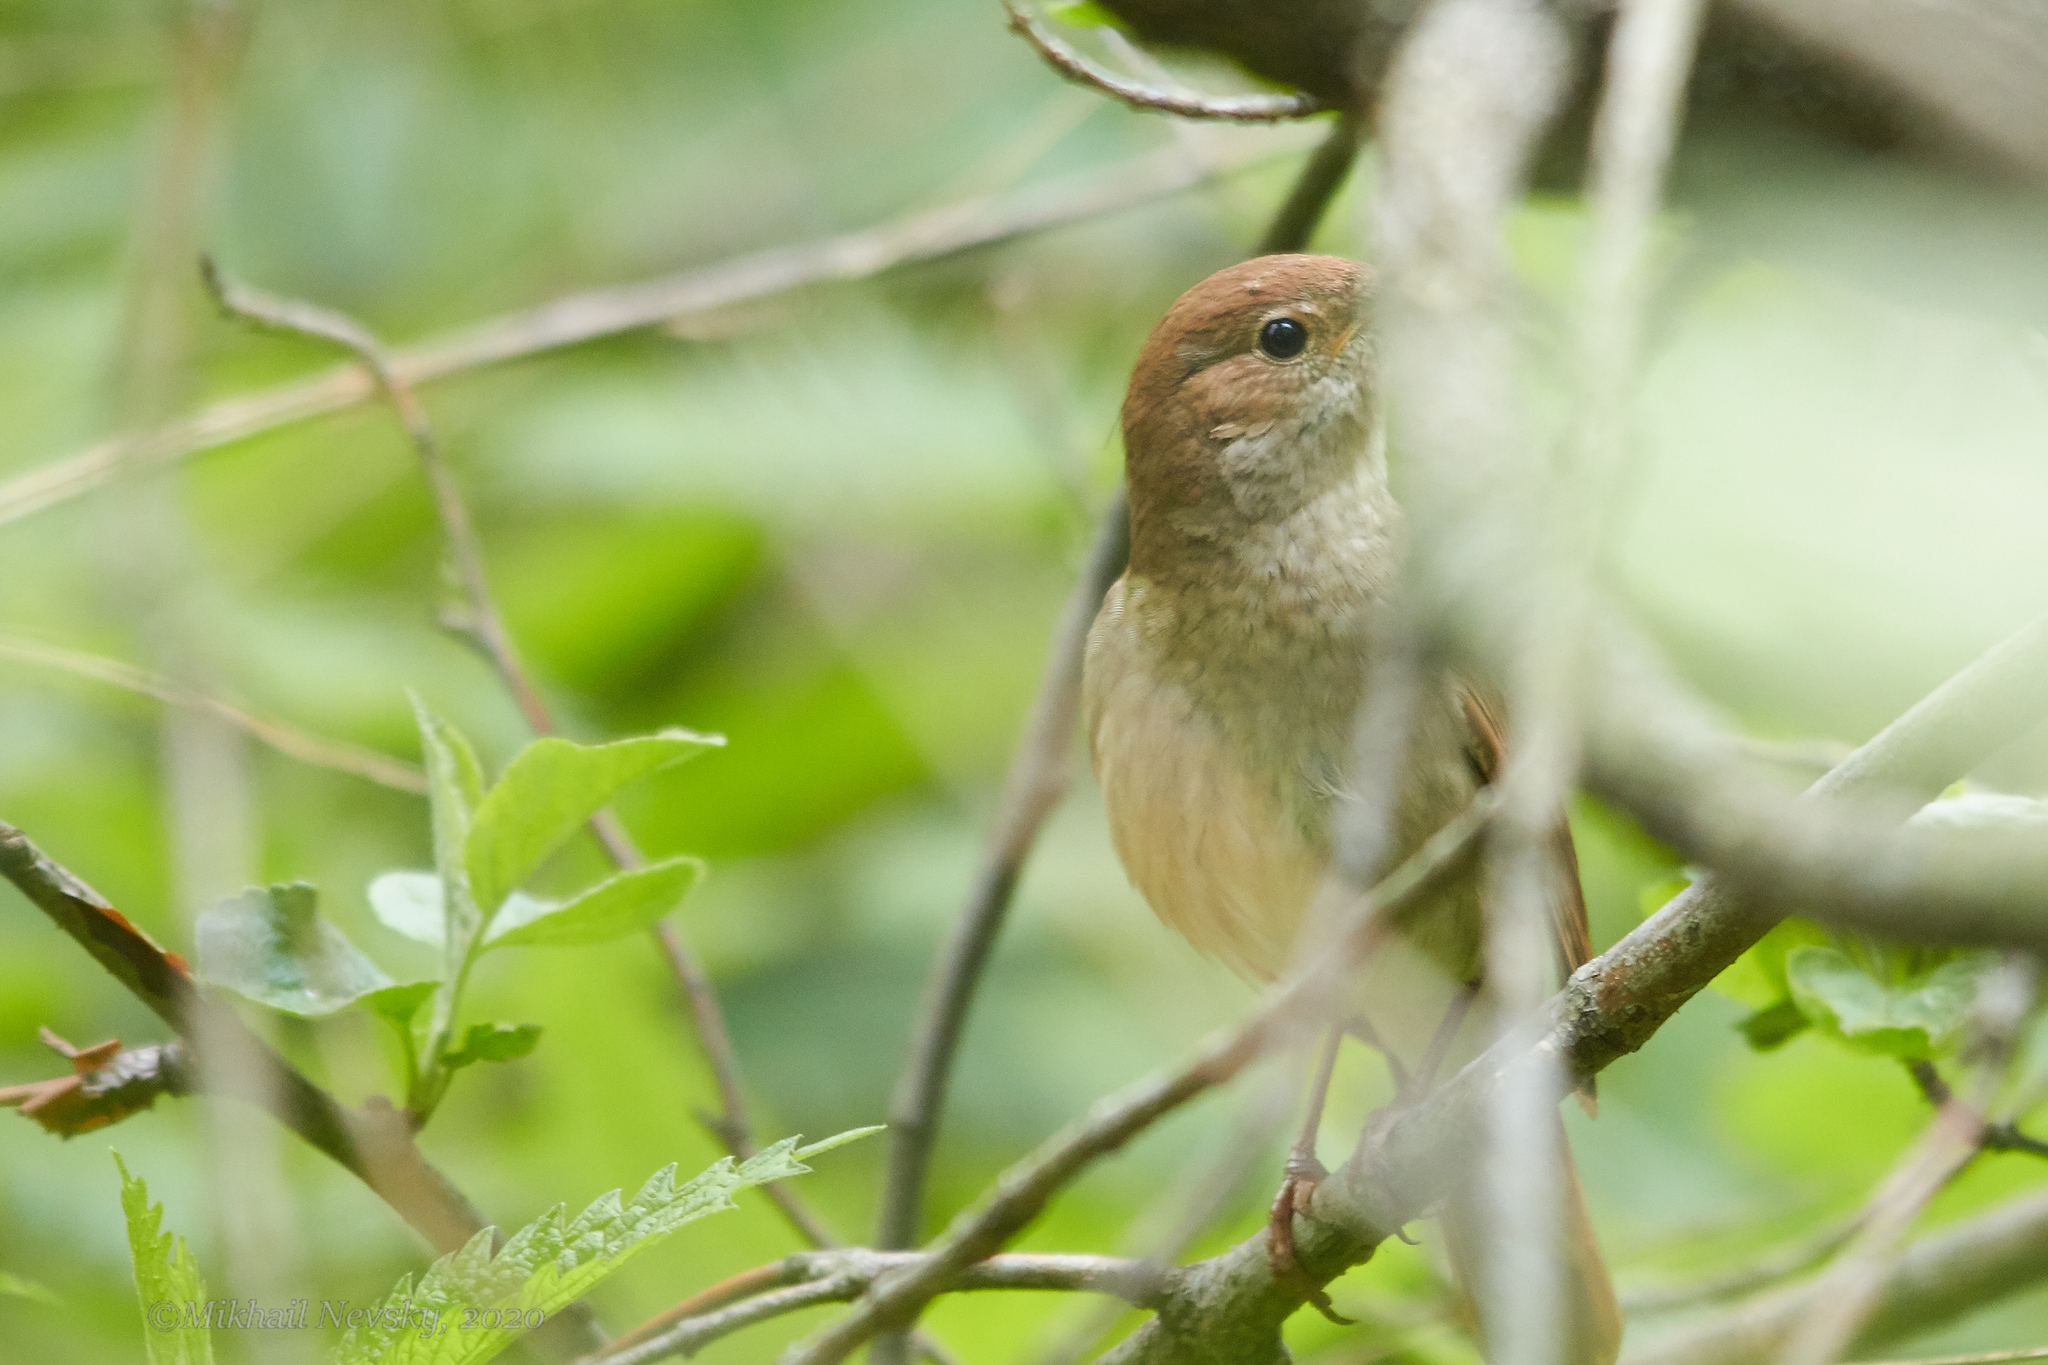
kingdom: Animalia
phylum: Chordata
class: Aves
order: Passeriformes
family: Muscicapidae
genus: Luscinia
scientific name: Luscinia luscinia
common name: Thrush nightingale
